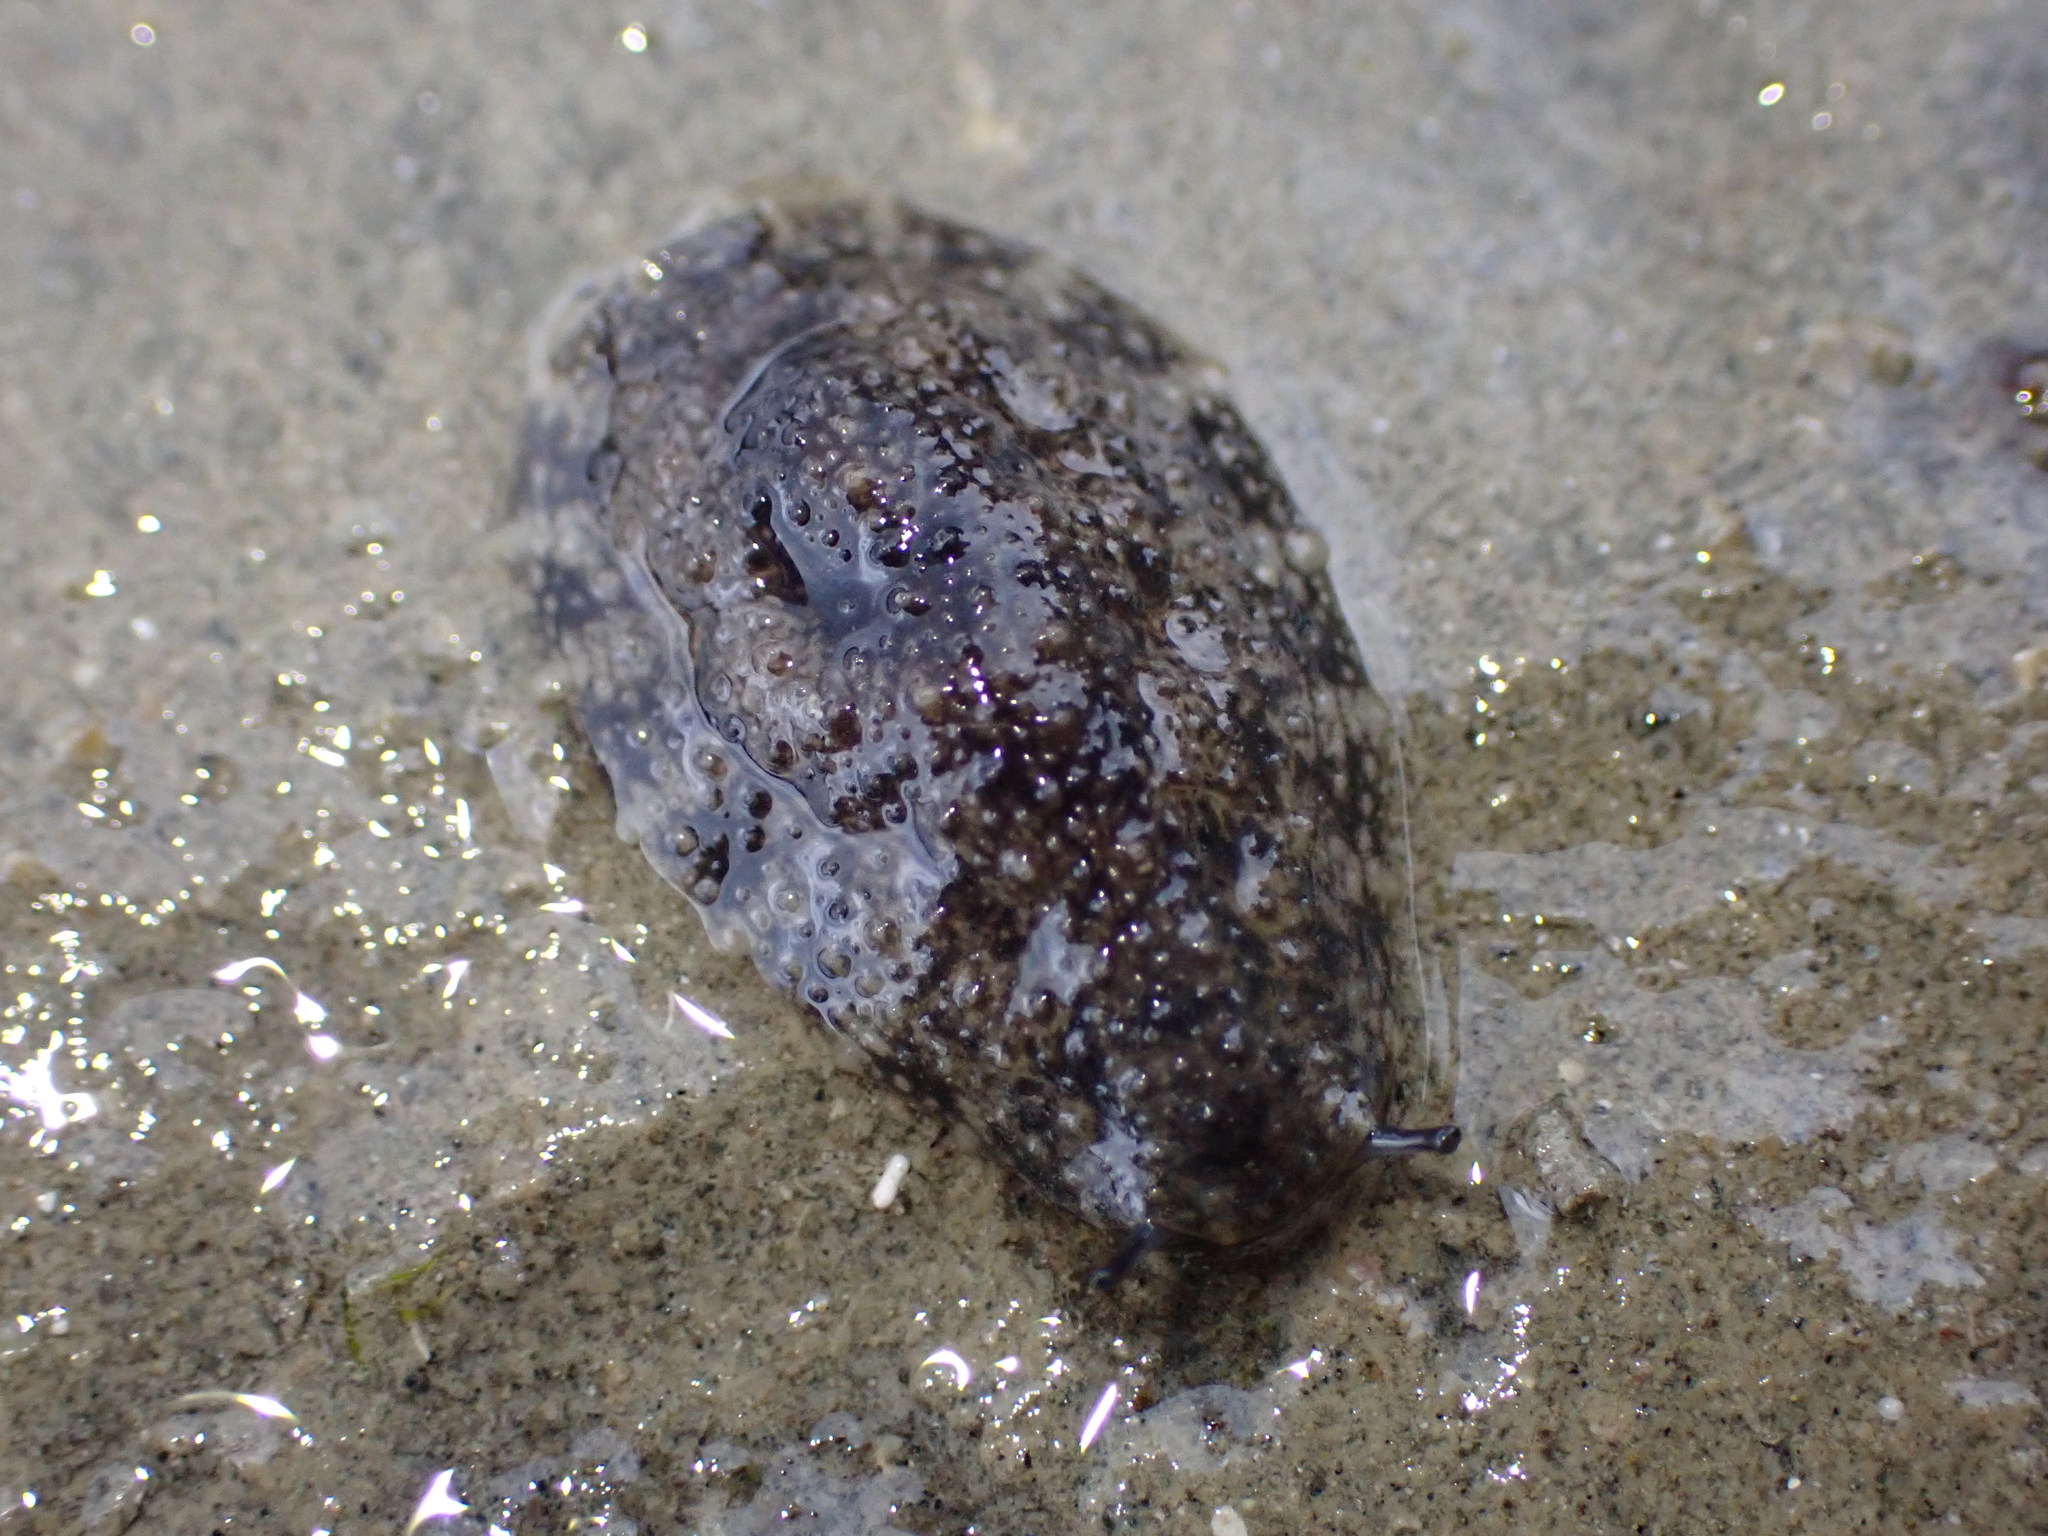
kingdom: Animalia
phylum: Mollusca
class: Gastropoda
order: Systellommatophora
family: Onchidiidae
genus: Onchidella
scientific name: Onchidella nigricans
